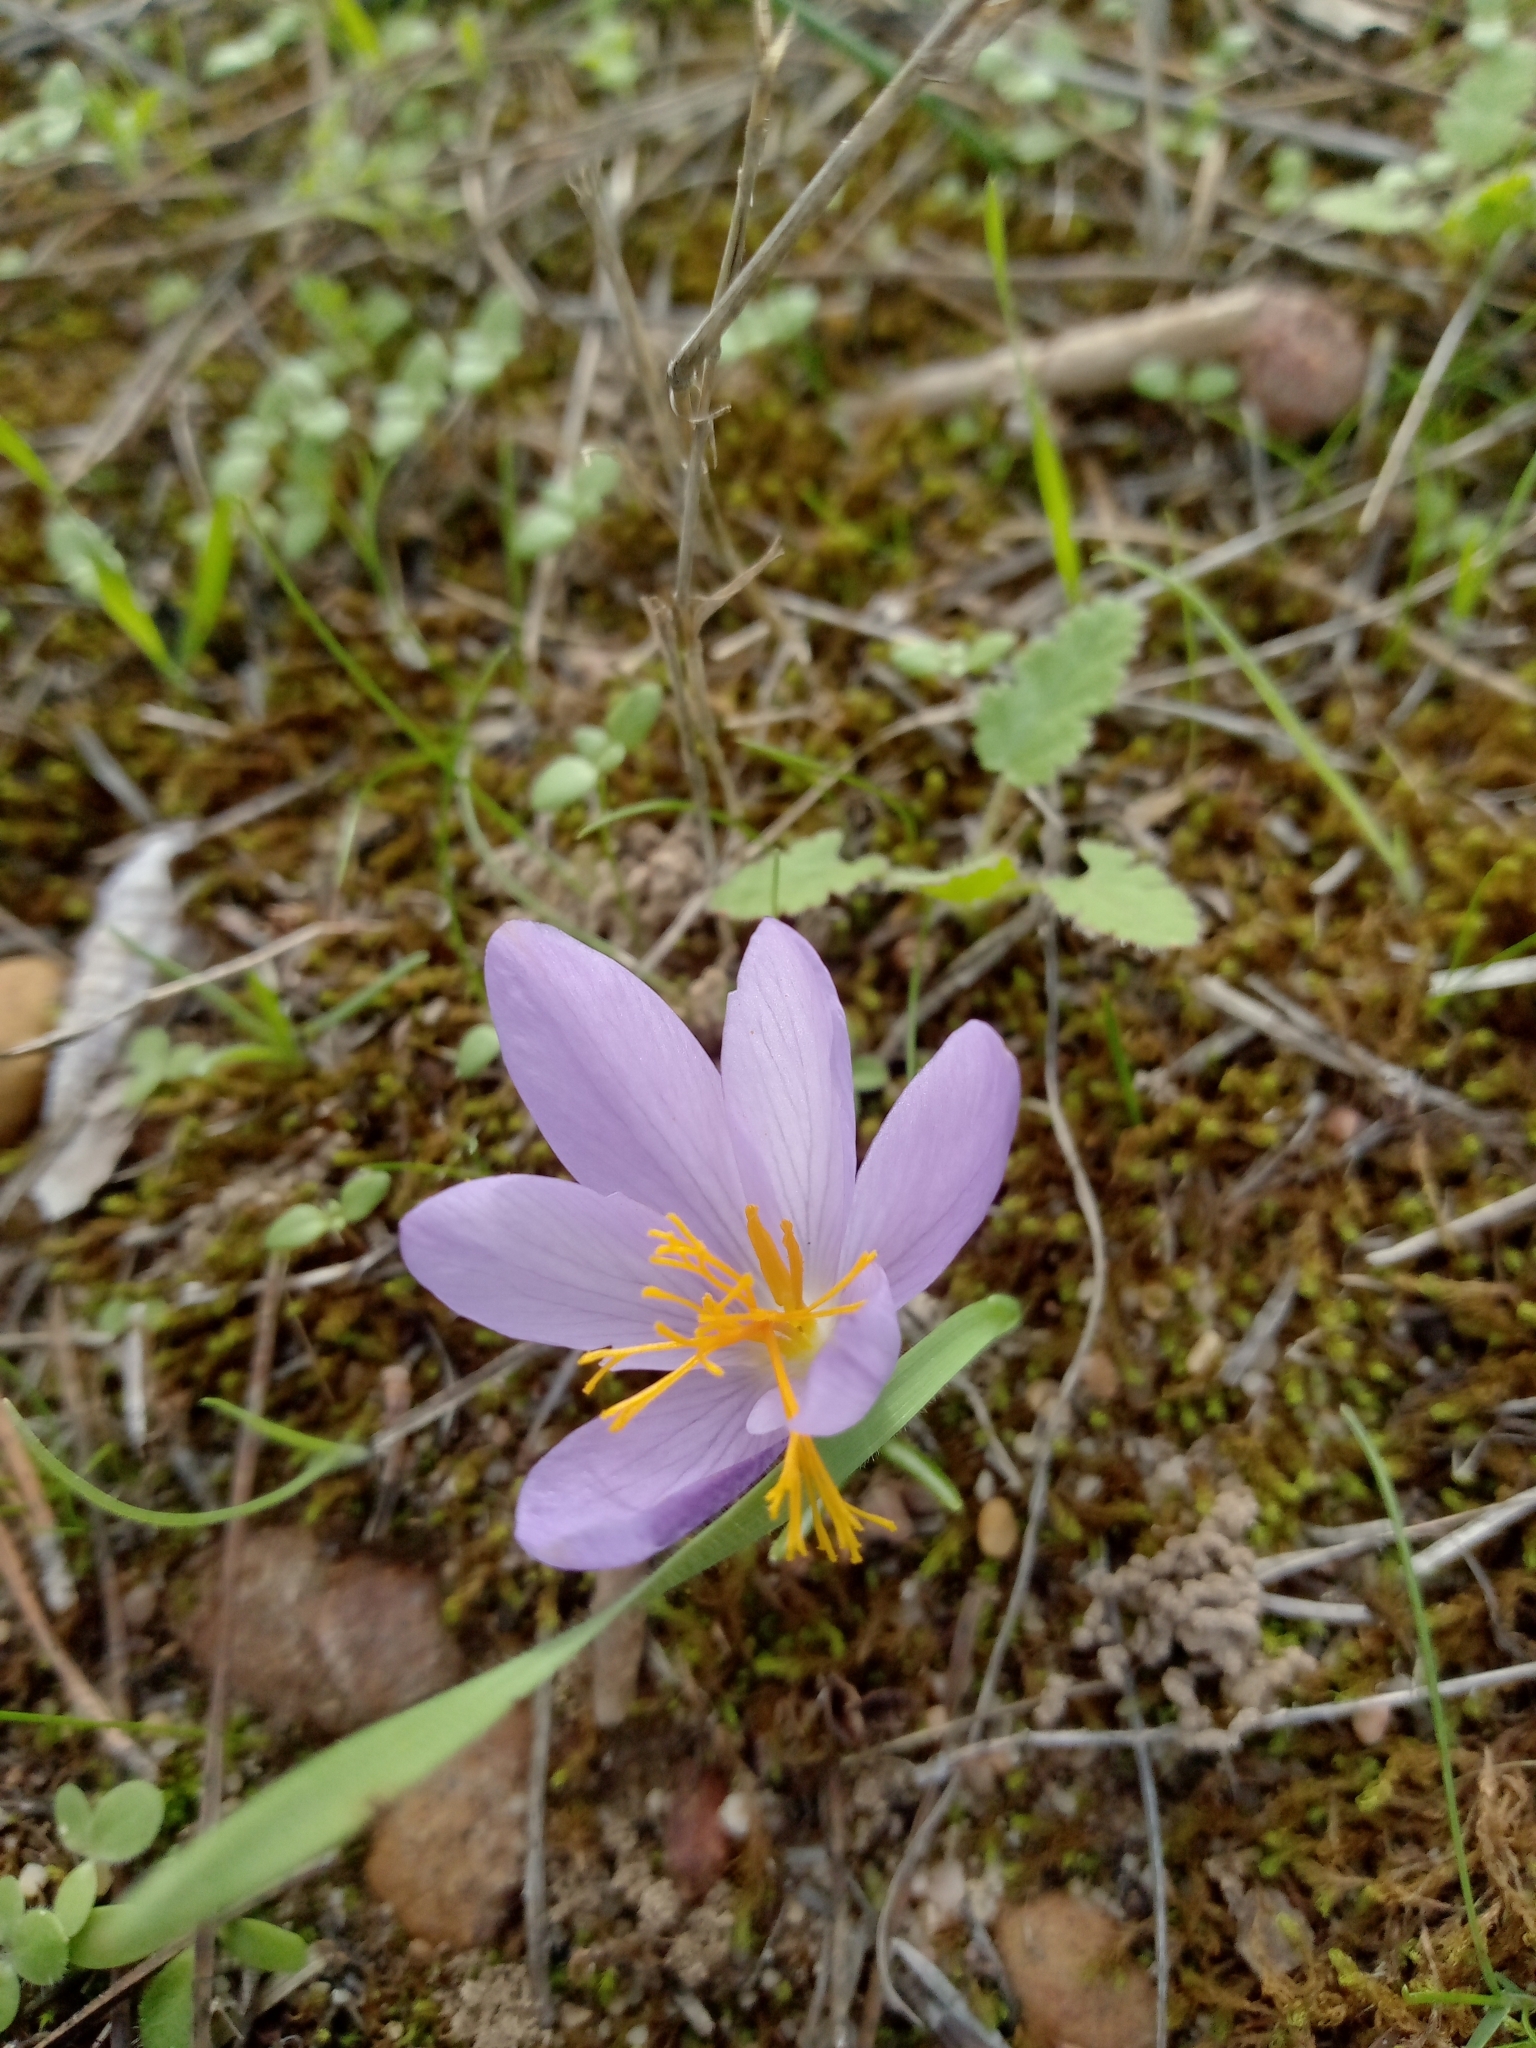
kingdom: Plantae
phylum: Tracheophyta
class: Liliopsida
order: Asparagales
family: Iridaceae
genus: Crocus
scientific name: Crocus serotinus
